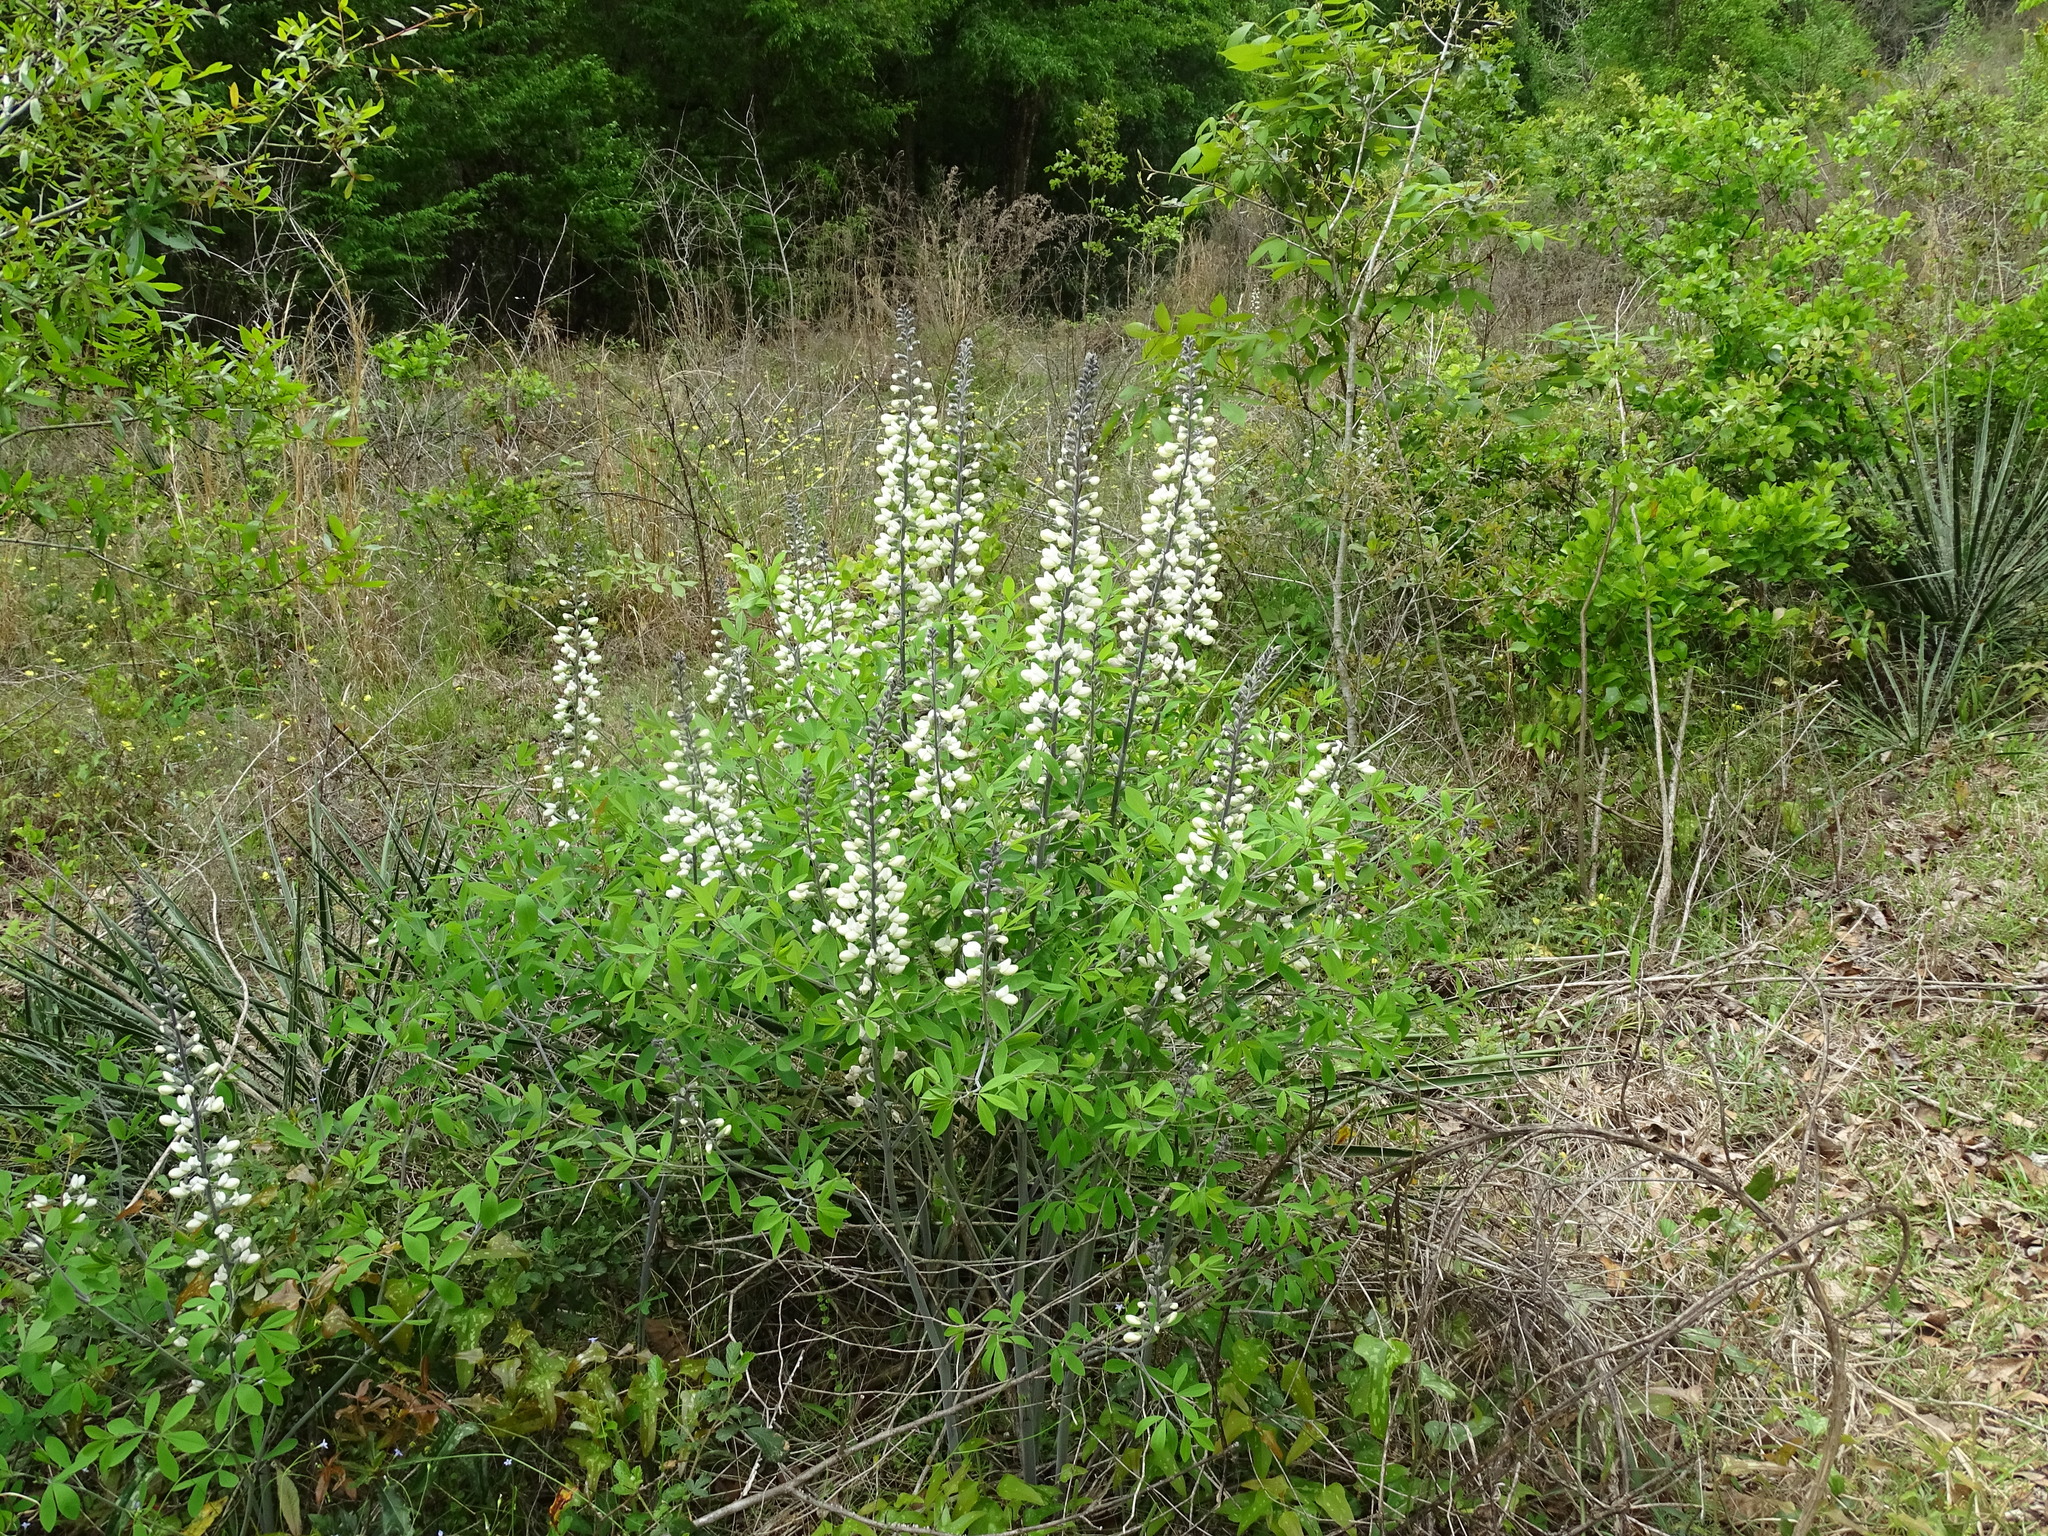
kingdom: Plantae
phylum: Tracheophyta
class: Magnoliopsida
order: Fabales
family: Fabaceae
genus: Baptisia
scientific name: Baptisia alba
